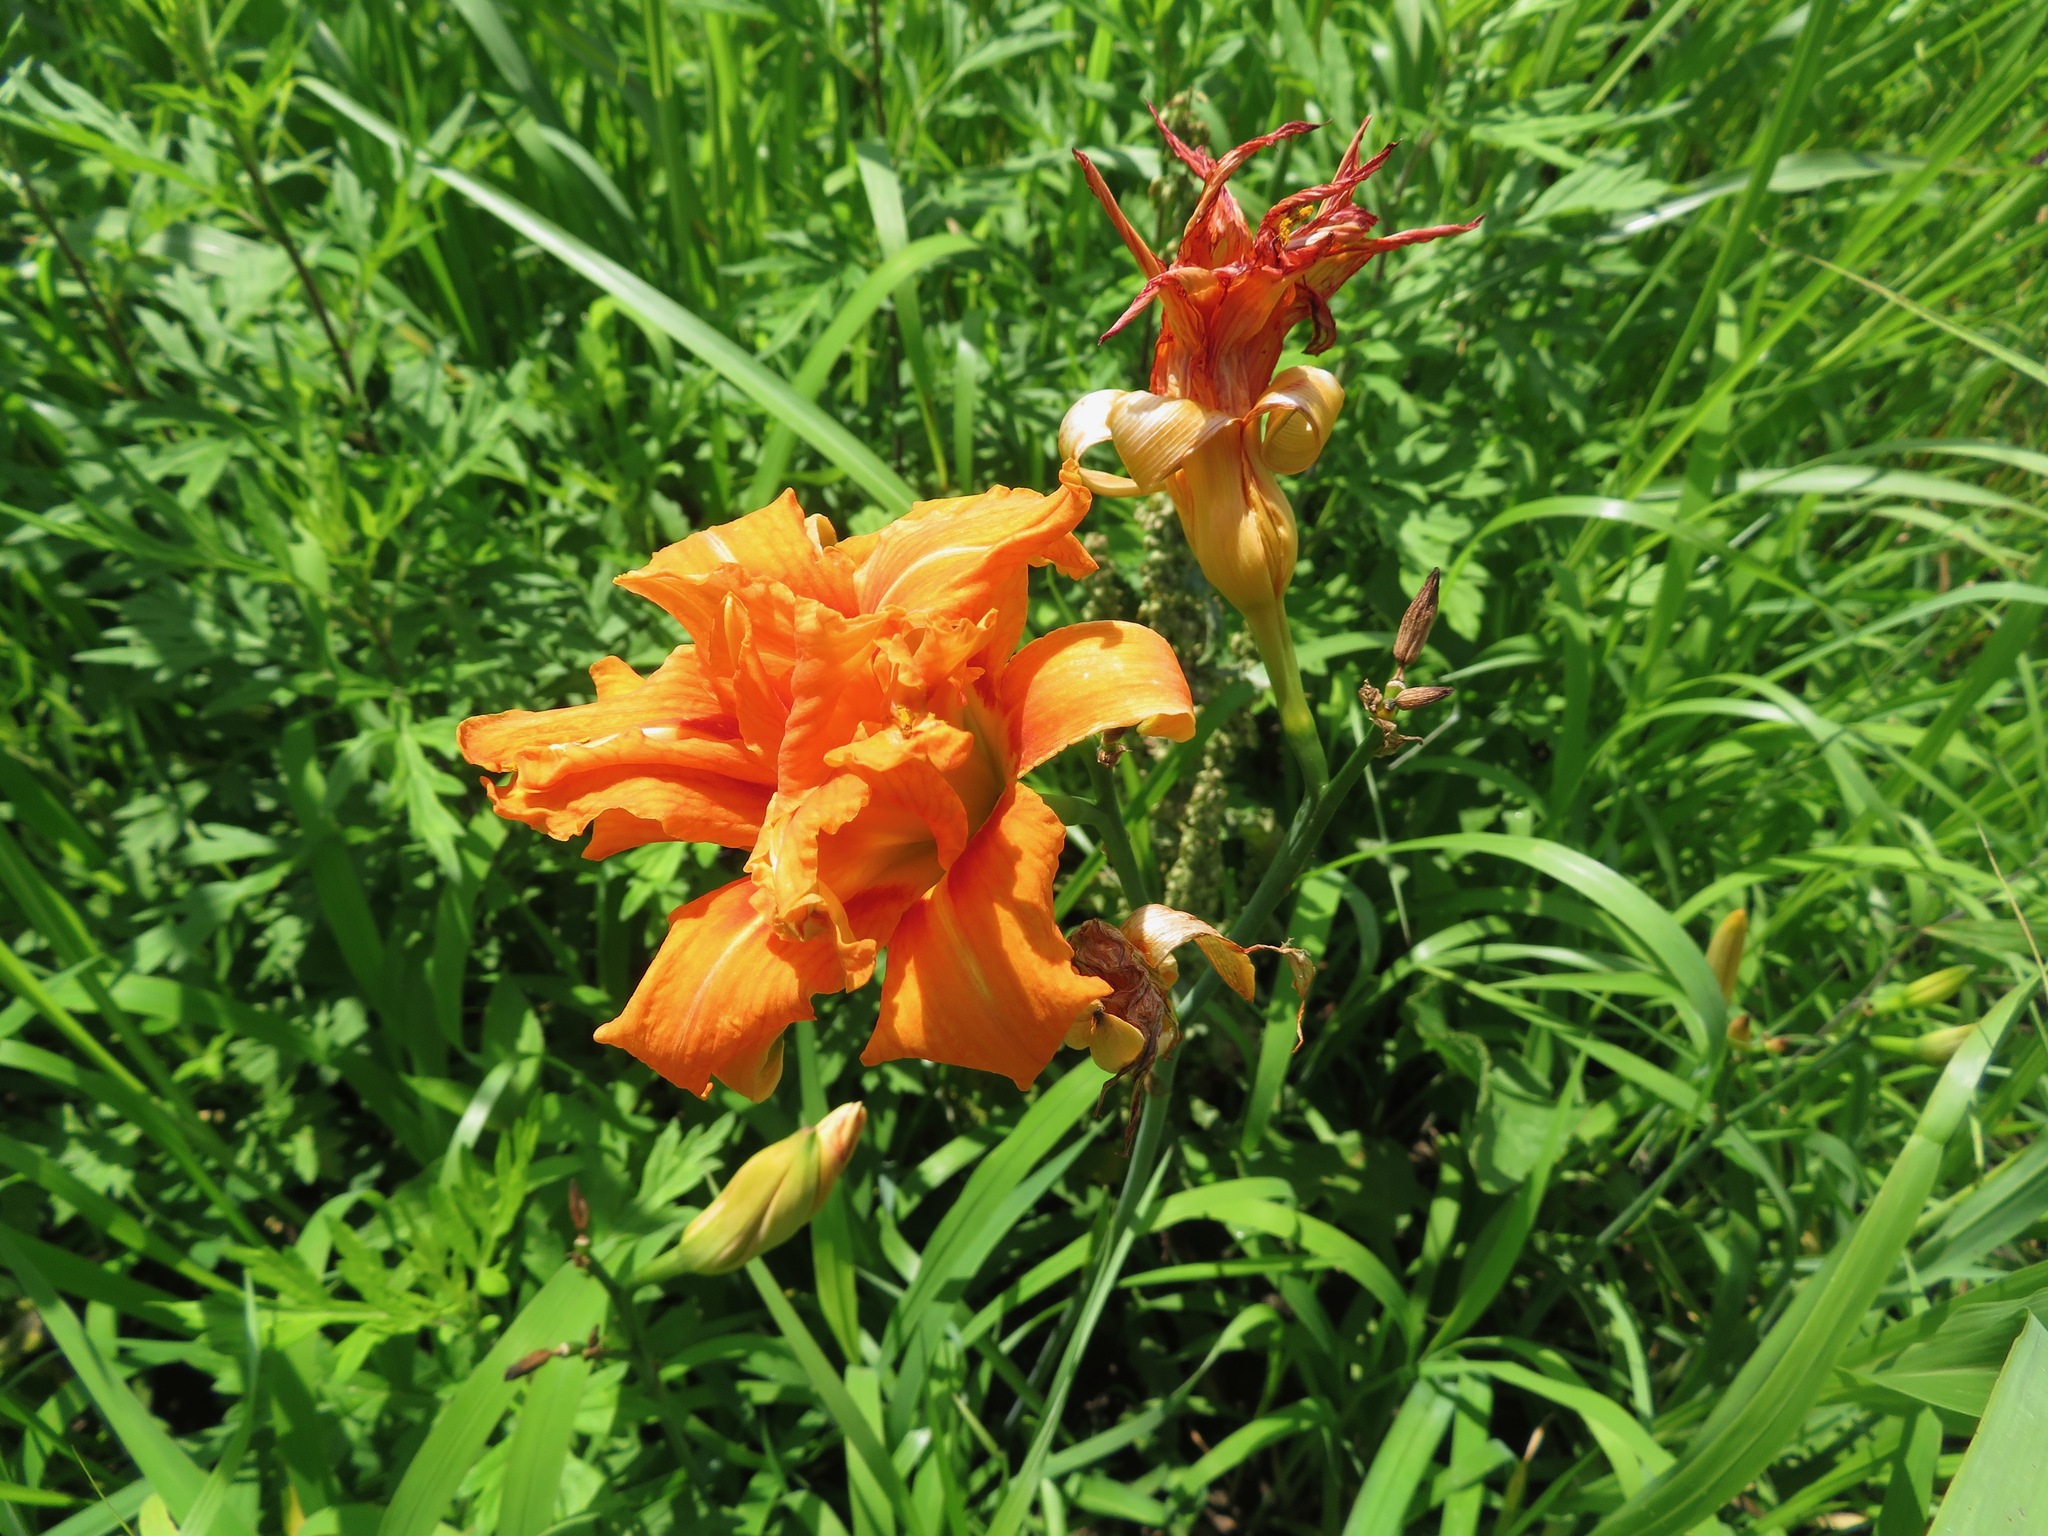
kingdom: Plantae
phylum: Tracheophyta
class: Liliopsida
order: Asparagales
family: Asphodelaceae
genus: Hemerocallis
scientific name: Hemerocallis fulva
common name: Orange day-lily
